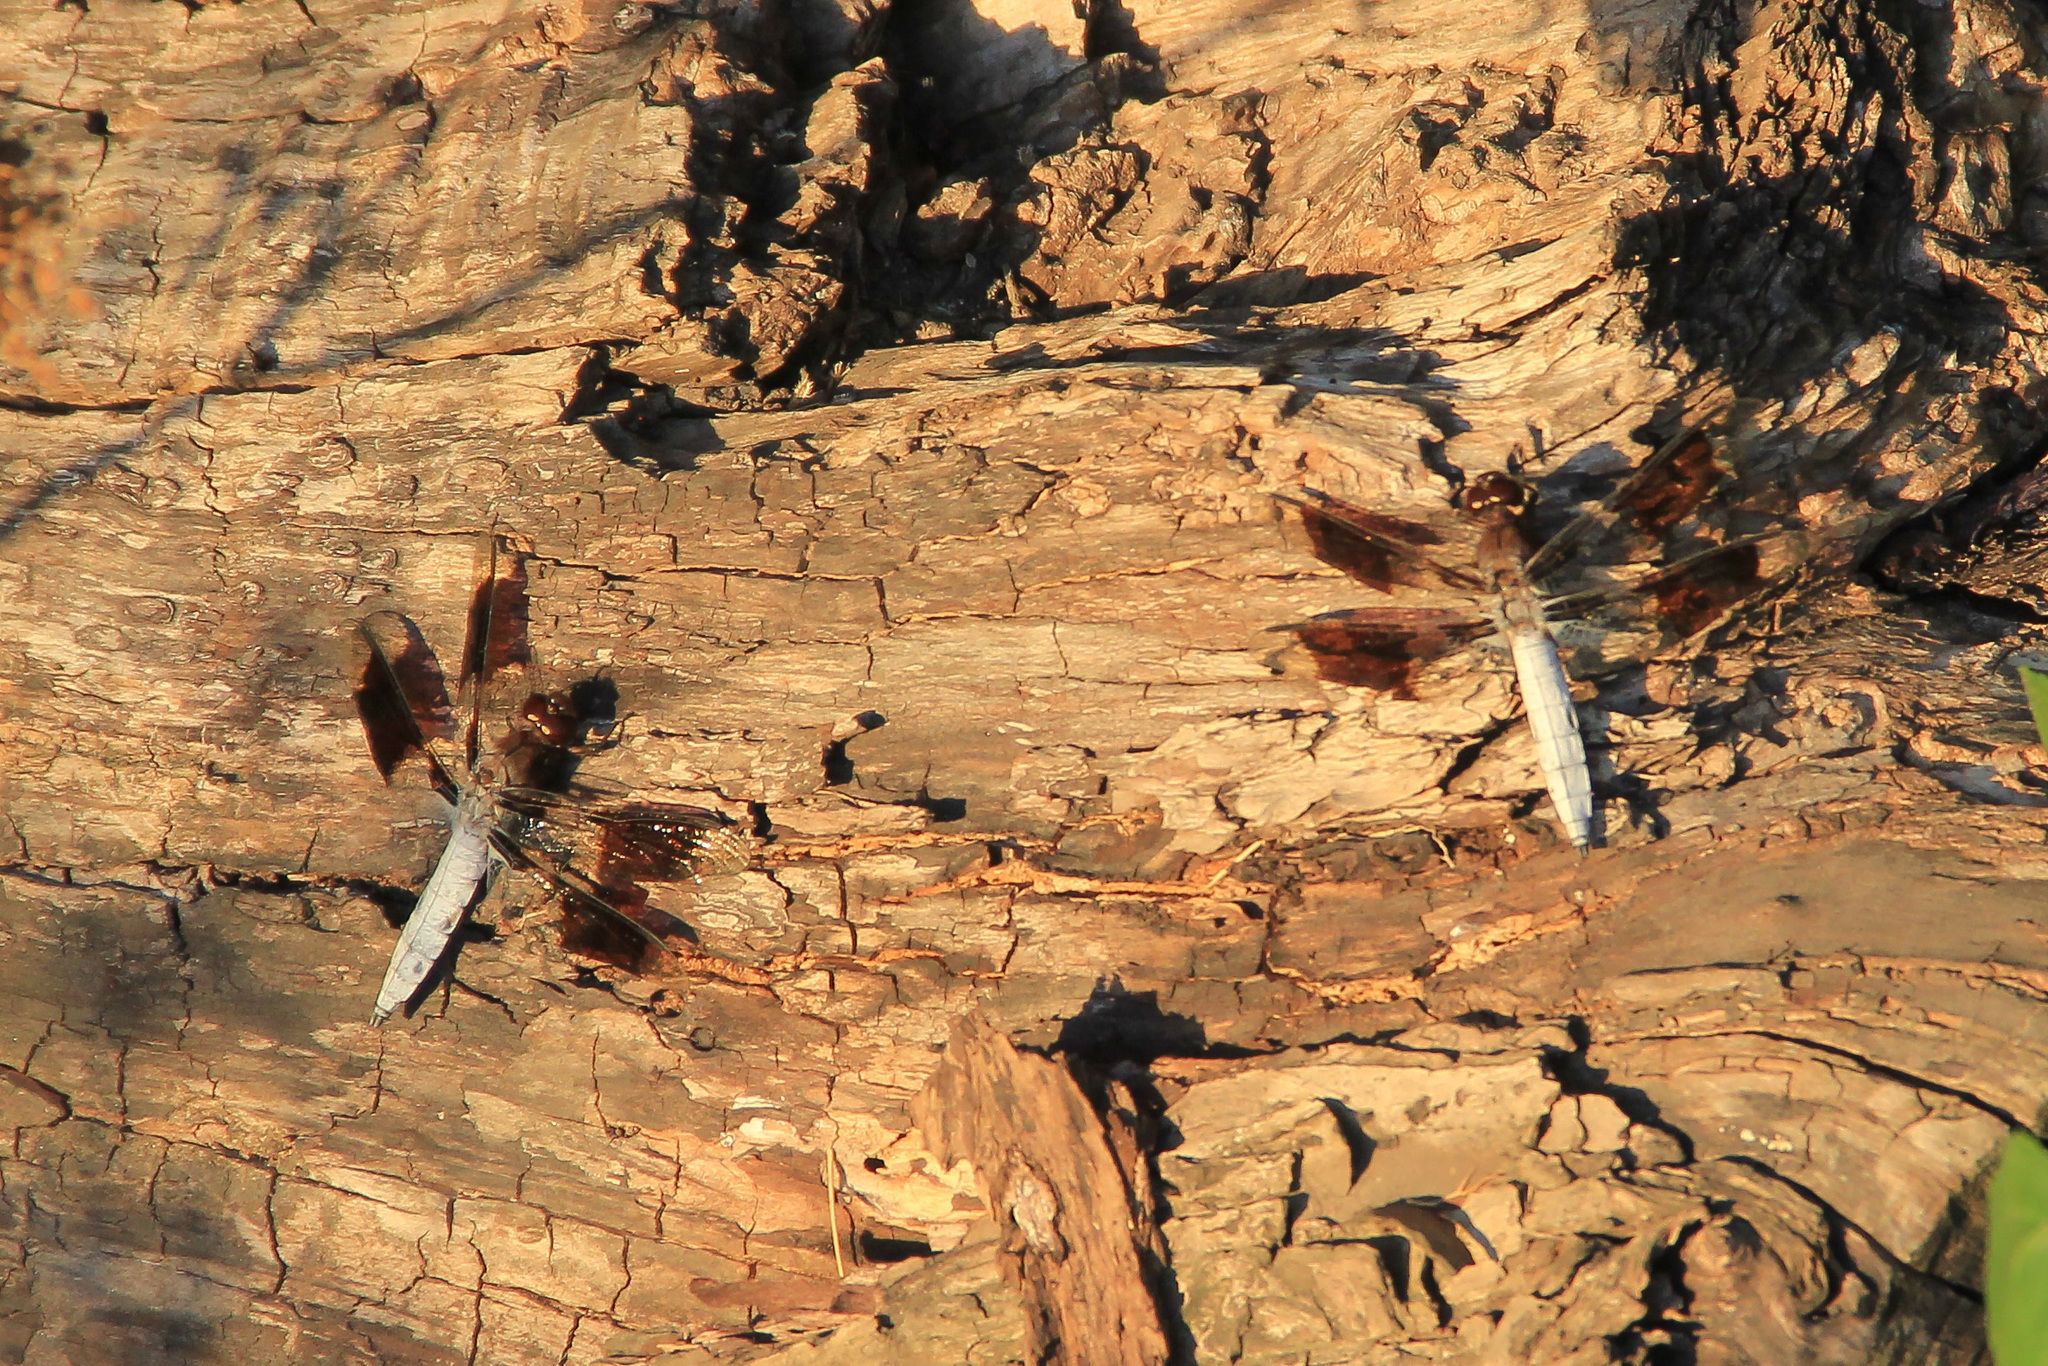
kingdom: Animalia
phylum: Arthropoda
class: Insecta
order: Odonata
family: Libellulidae
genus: Plathemis
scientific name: Plathemis lydia
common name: Common whitetail
